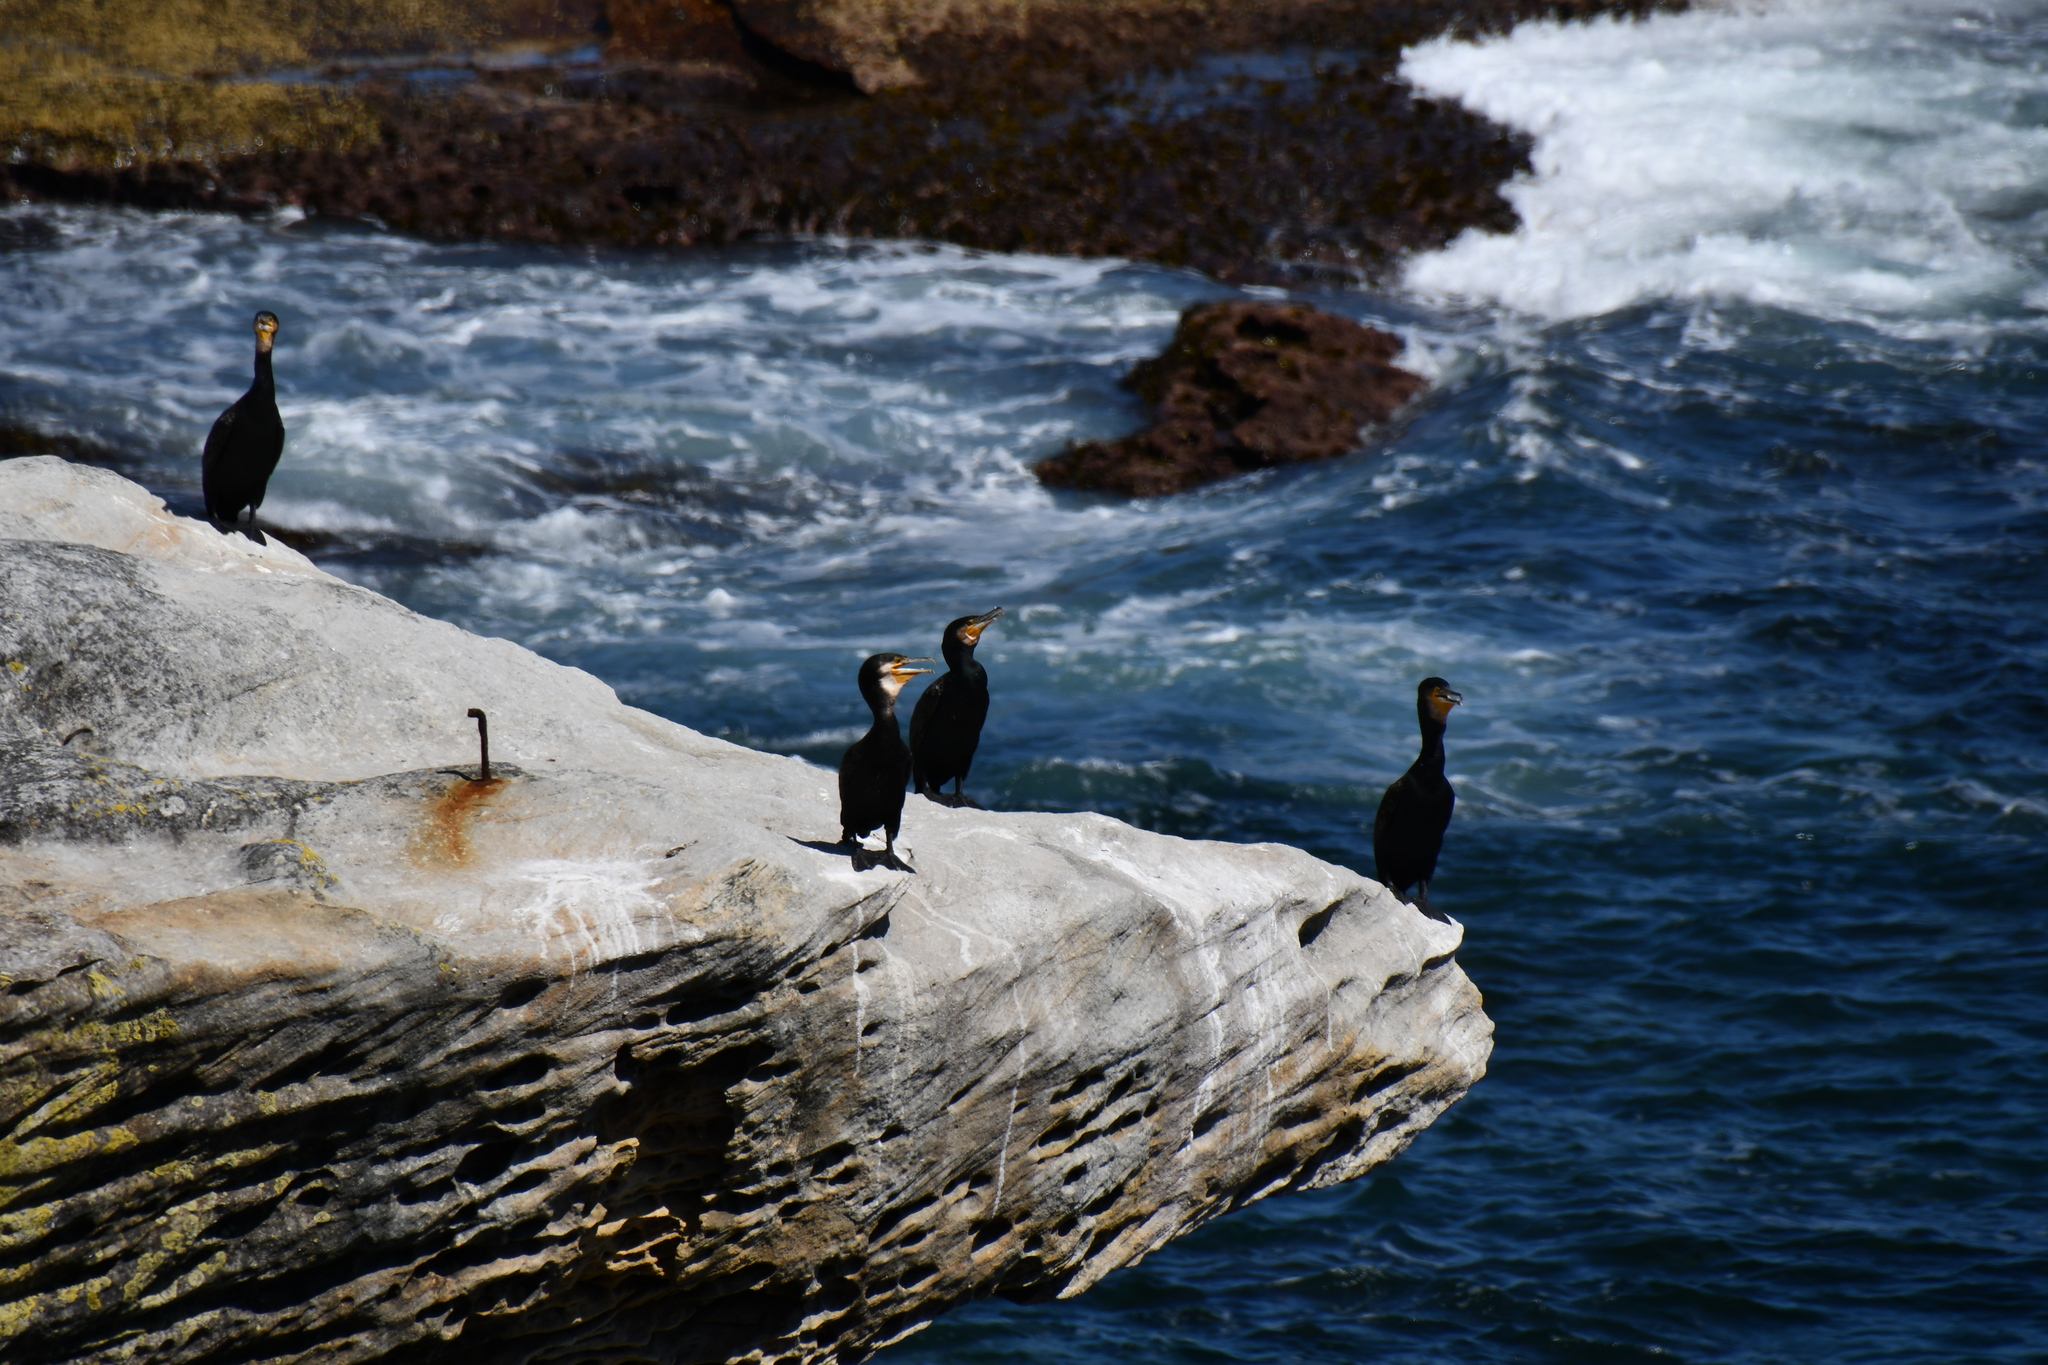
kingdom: Animalia
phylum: Chordata
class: Aves
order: Suliformes
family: Phalacrocoracidae
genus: Phalacrocorax
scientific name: Phalacrocorax carbo
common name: Great cormorant
